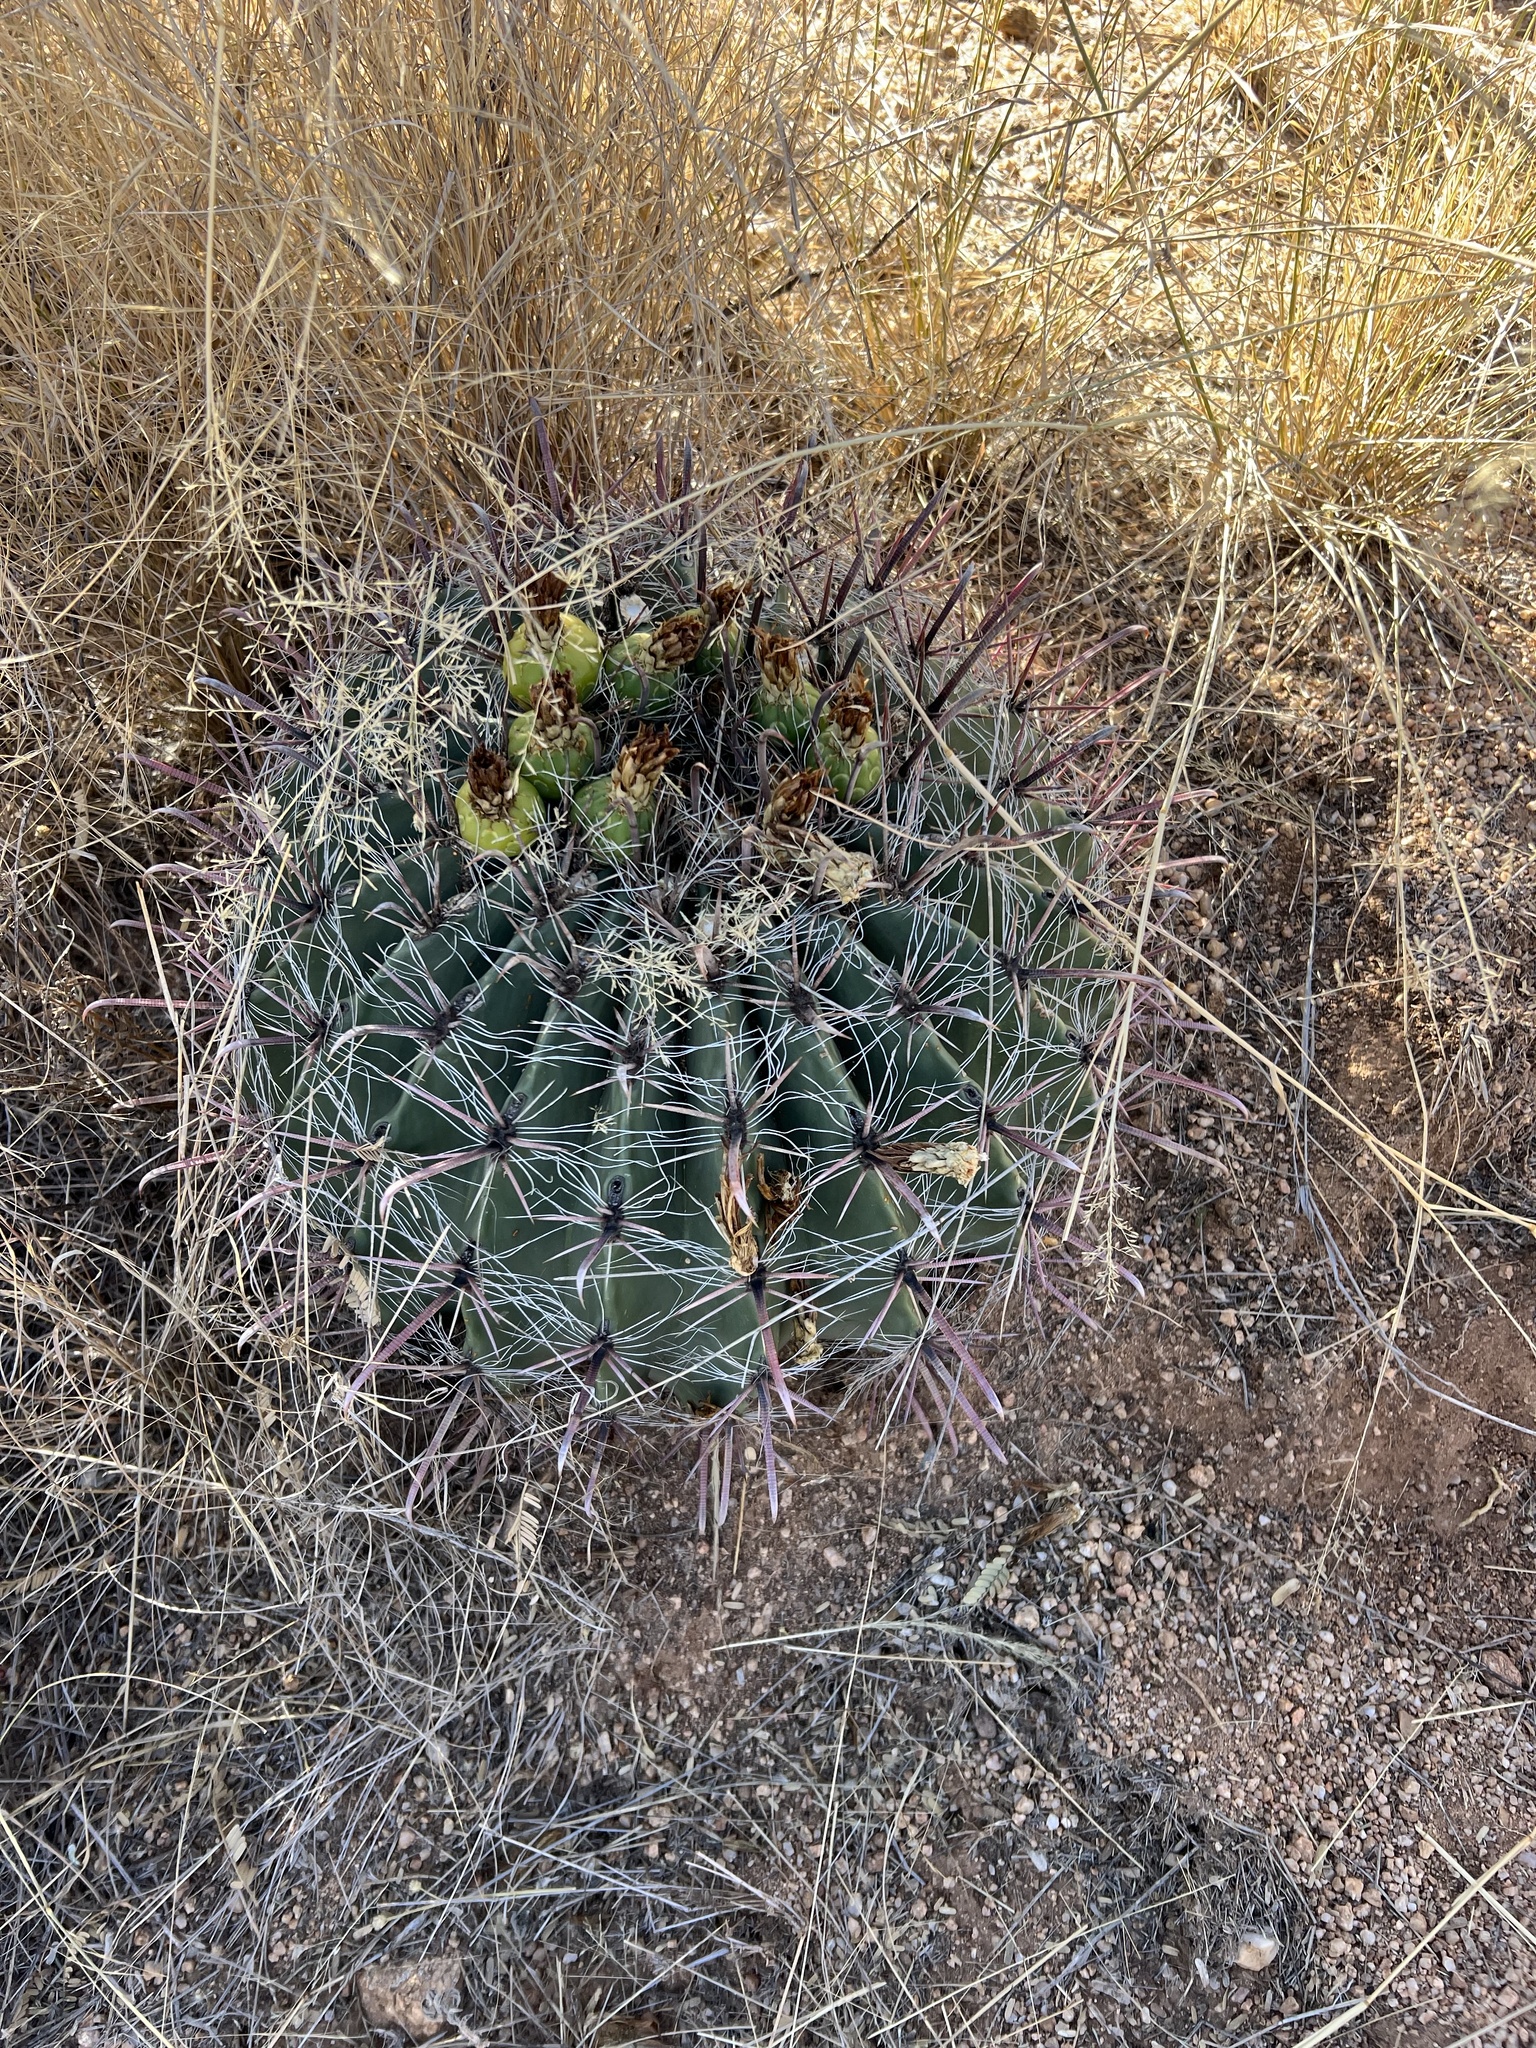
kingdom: Plantae
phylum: Tracheophyta
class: Magnoliopsida
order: Caryophyllales
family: Cactaceae
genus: Ferocactus
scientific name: Ferocactus wislizeni
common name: Candy barrel cactus
